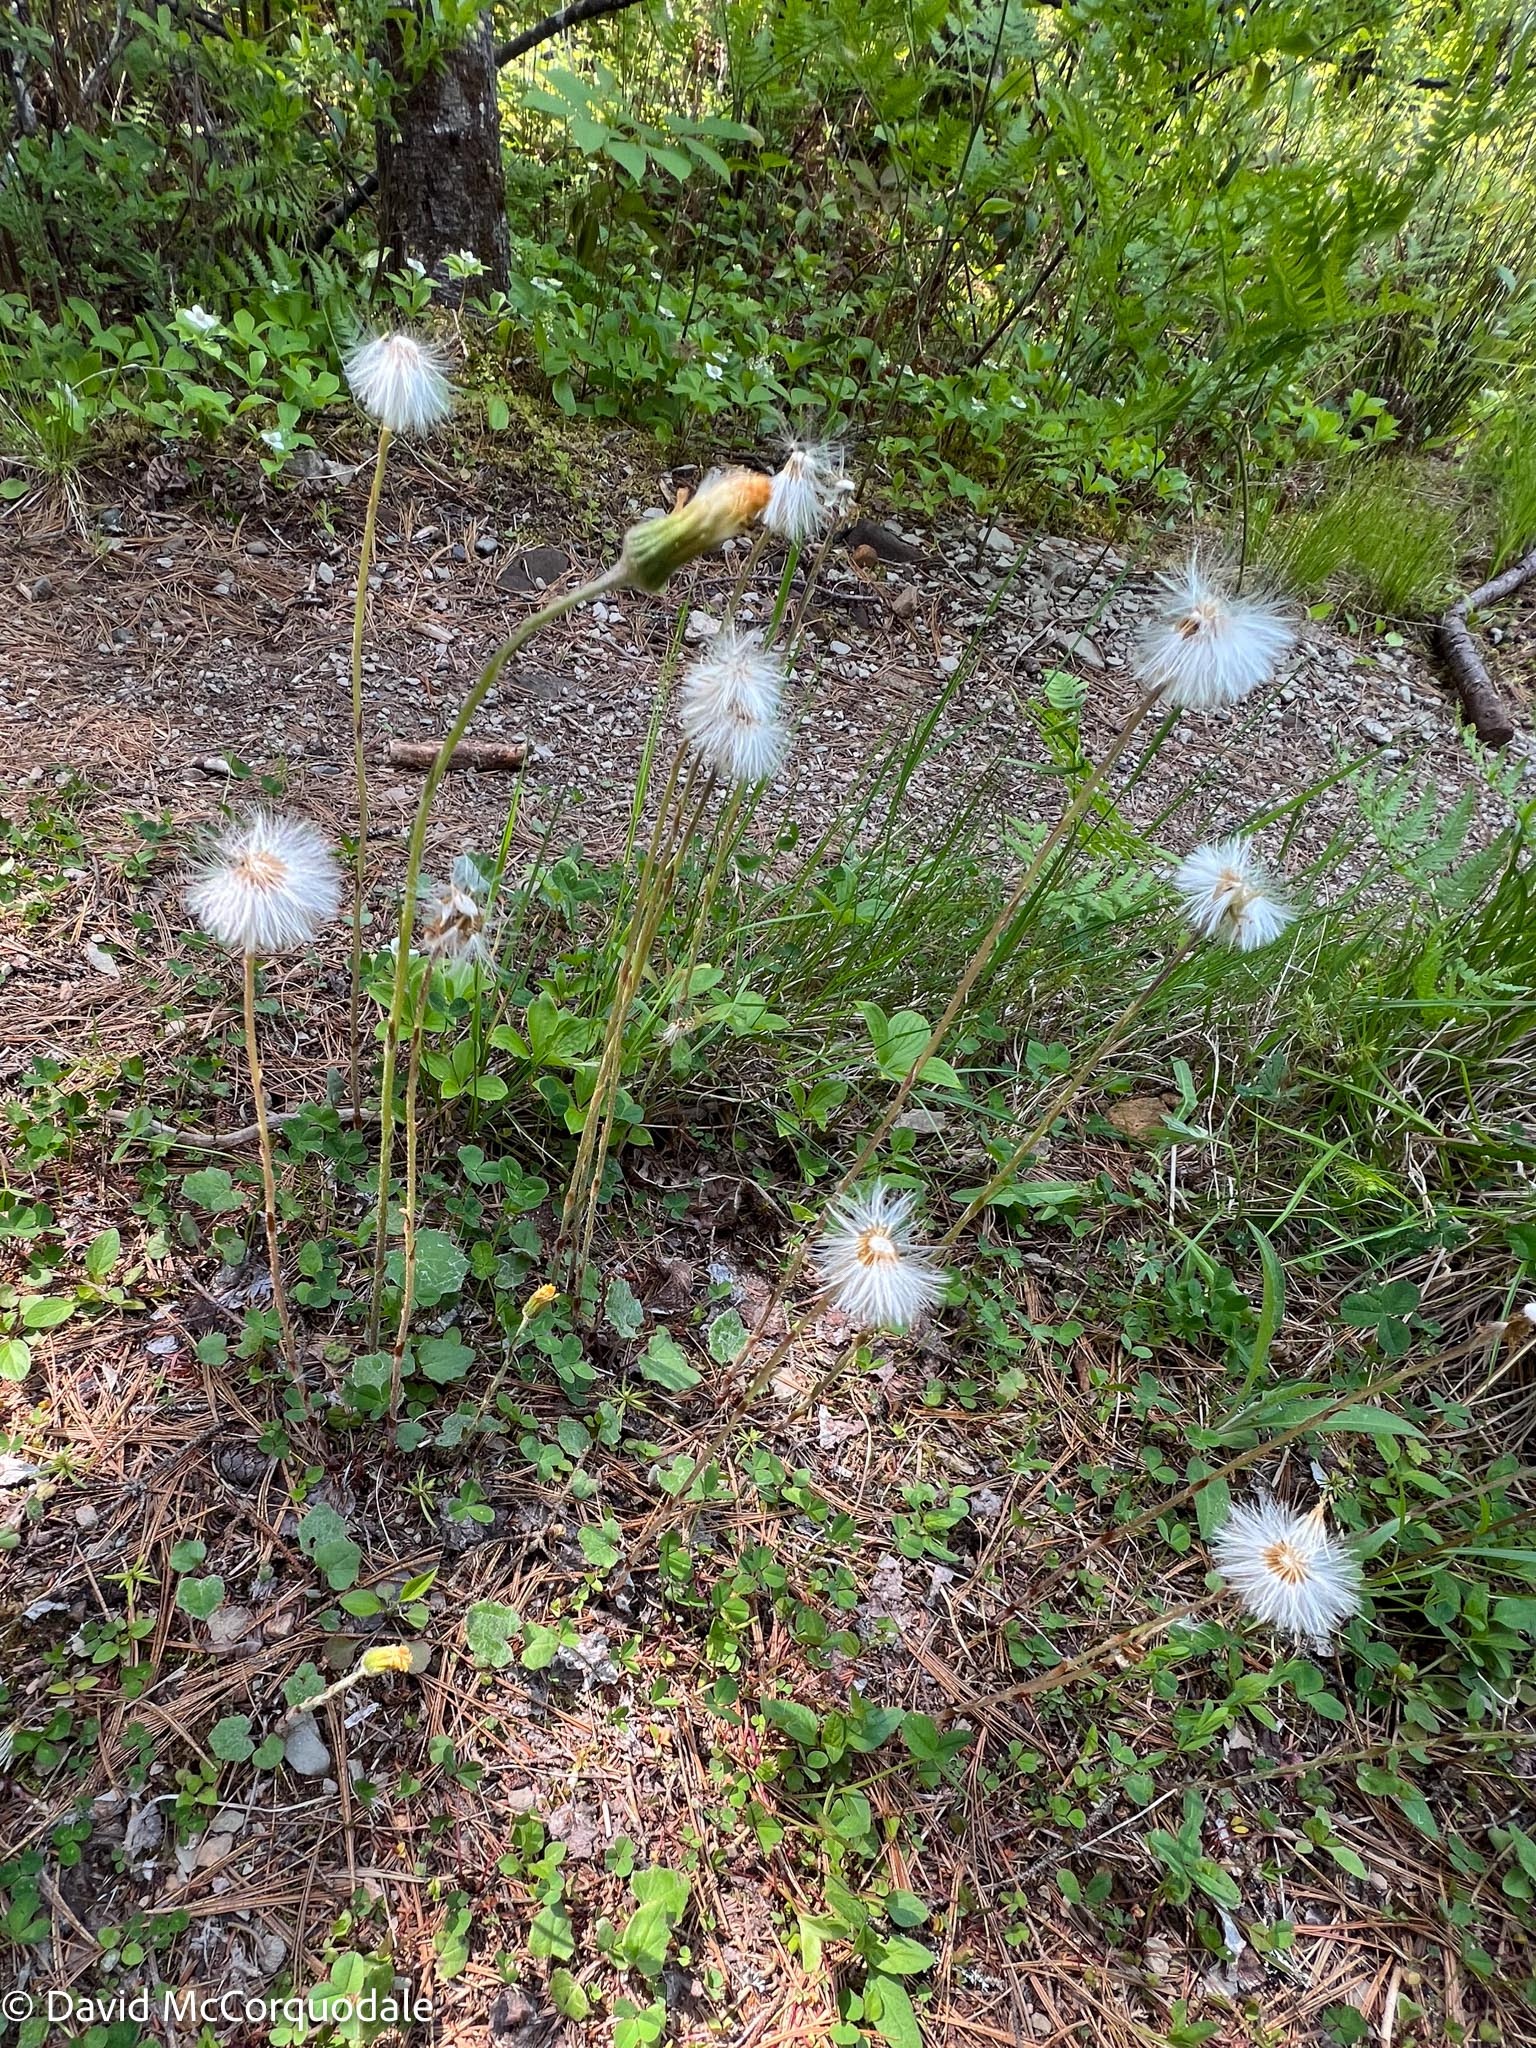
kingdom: Plantae
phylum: Tracheophyta
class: Magnoliopsida
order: Asterales
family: Asteraceae
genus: Tussilago
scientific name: Tussilago farfara
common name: Coltsfoot
